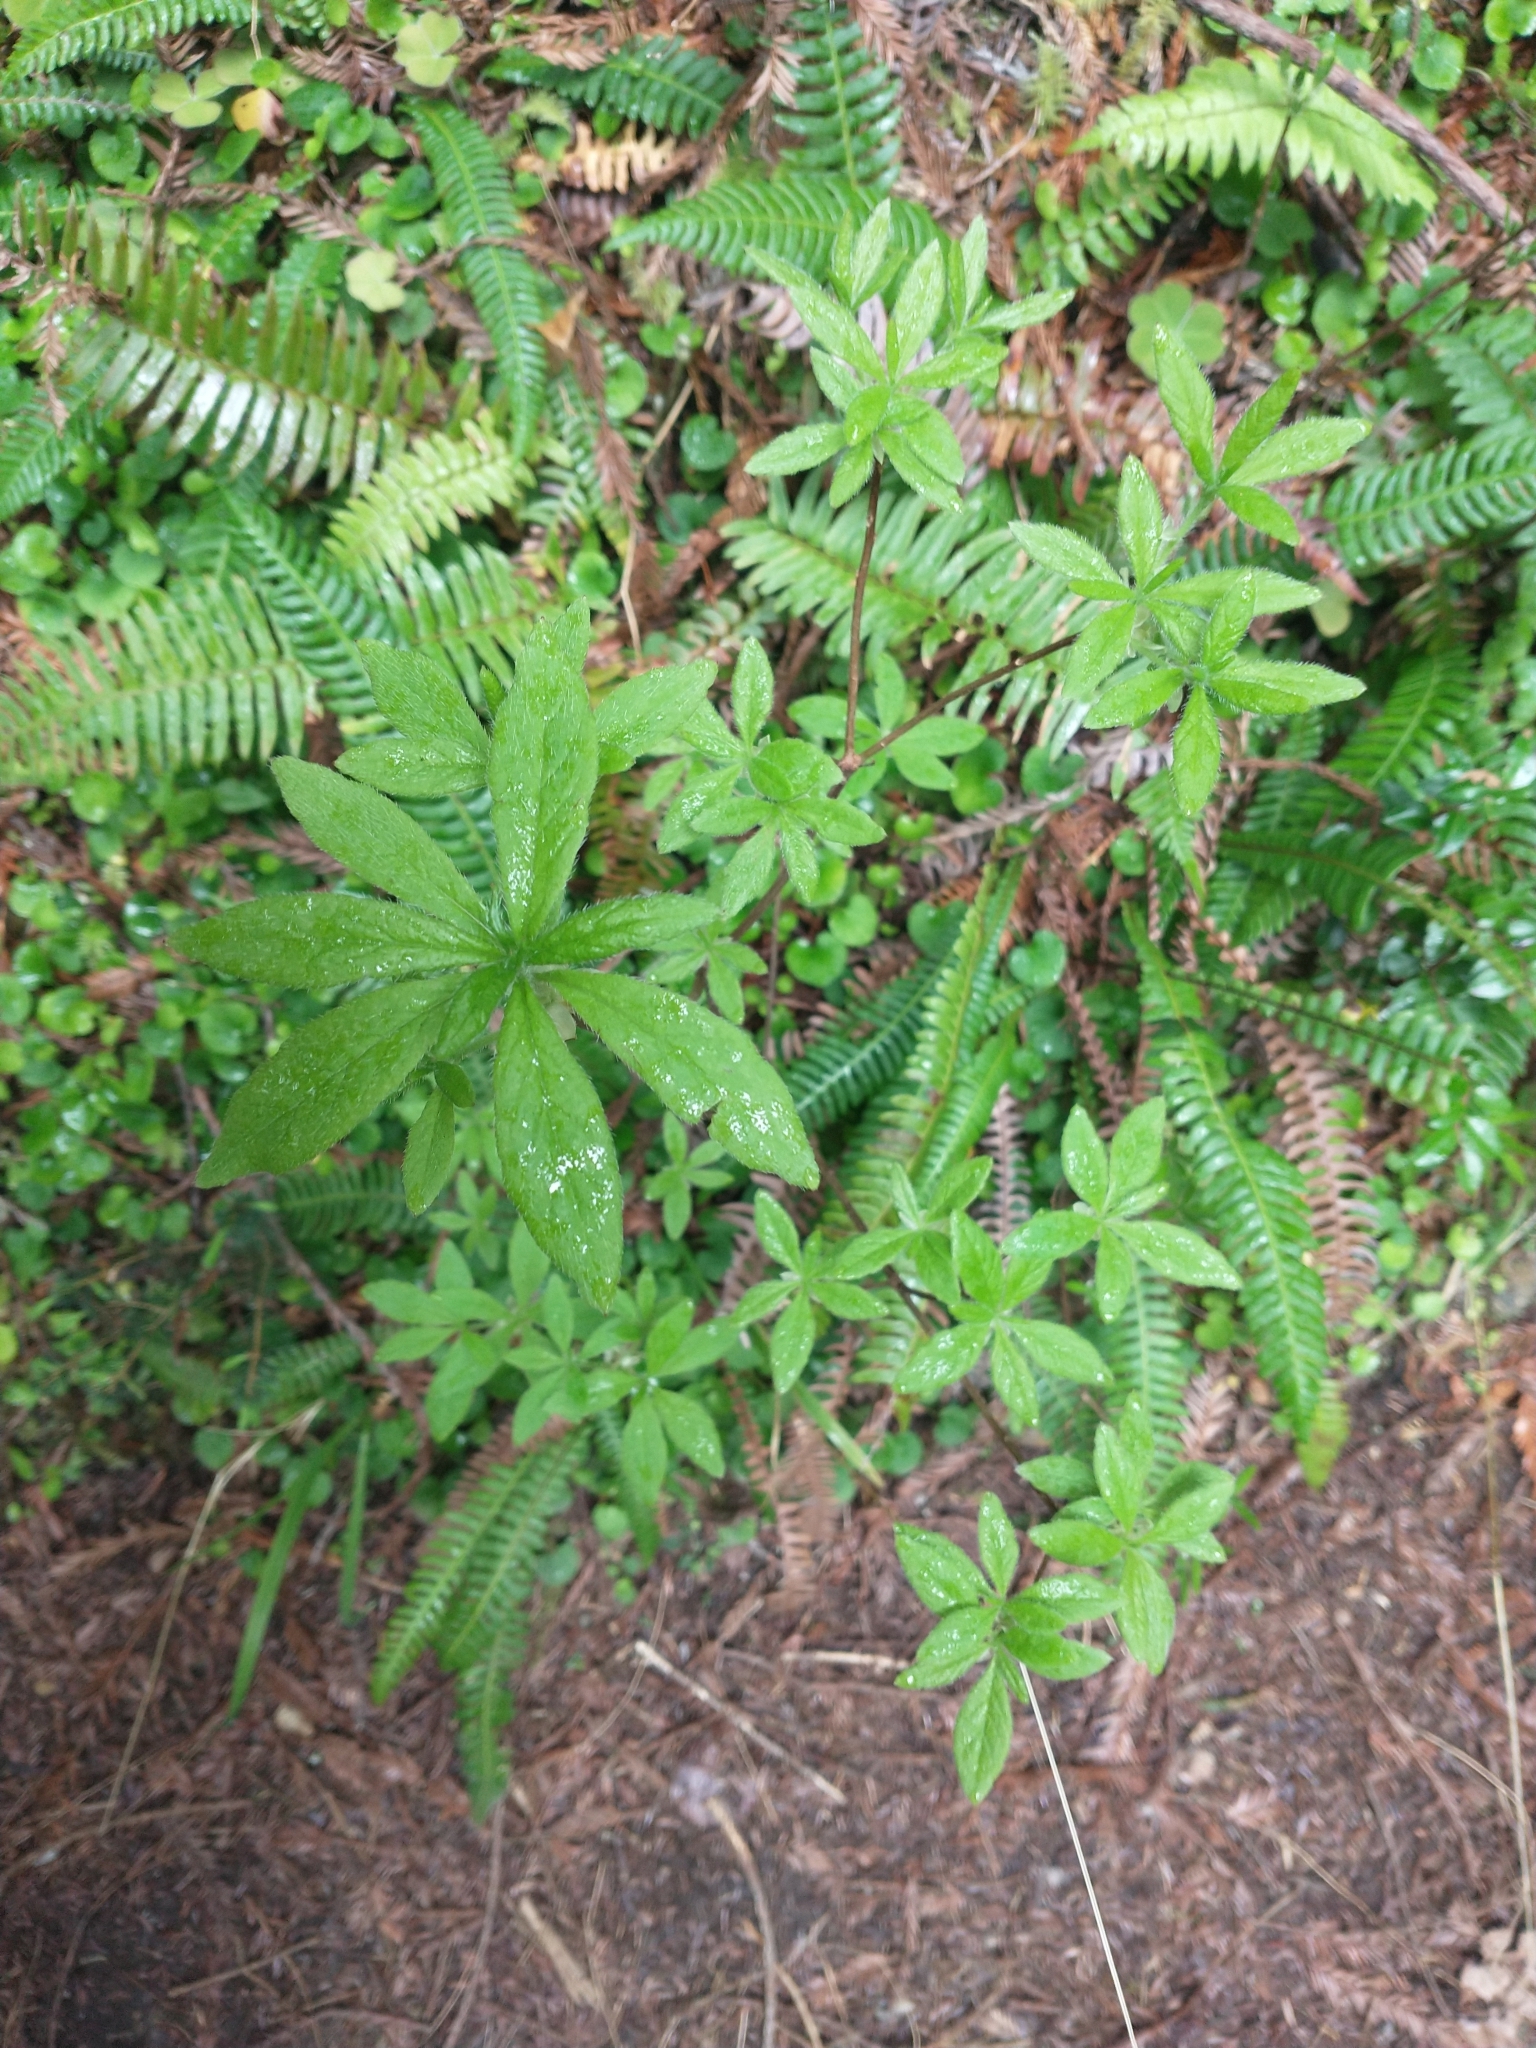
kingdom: Plantae
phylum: Tracheophyta
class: Magnoliopsida
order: Ericales
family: Ericaceae
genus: Rhododendron
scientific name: Rhododendron menziesii
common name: Pacific menziesia
